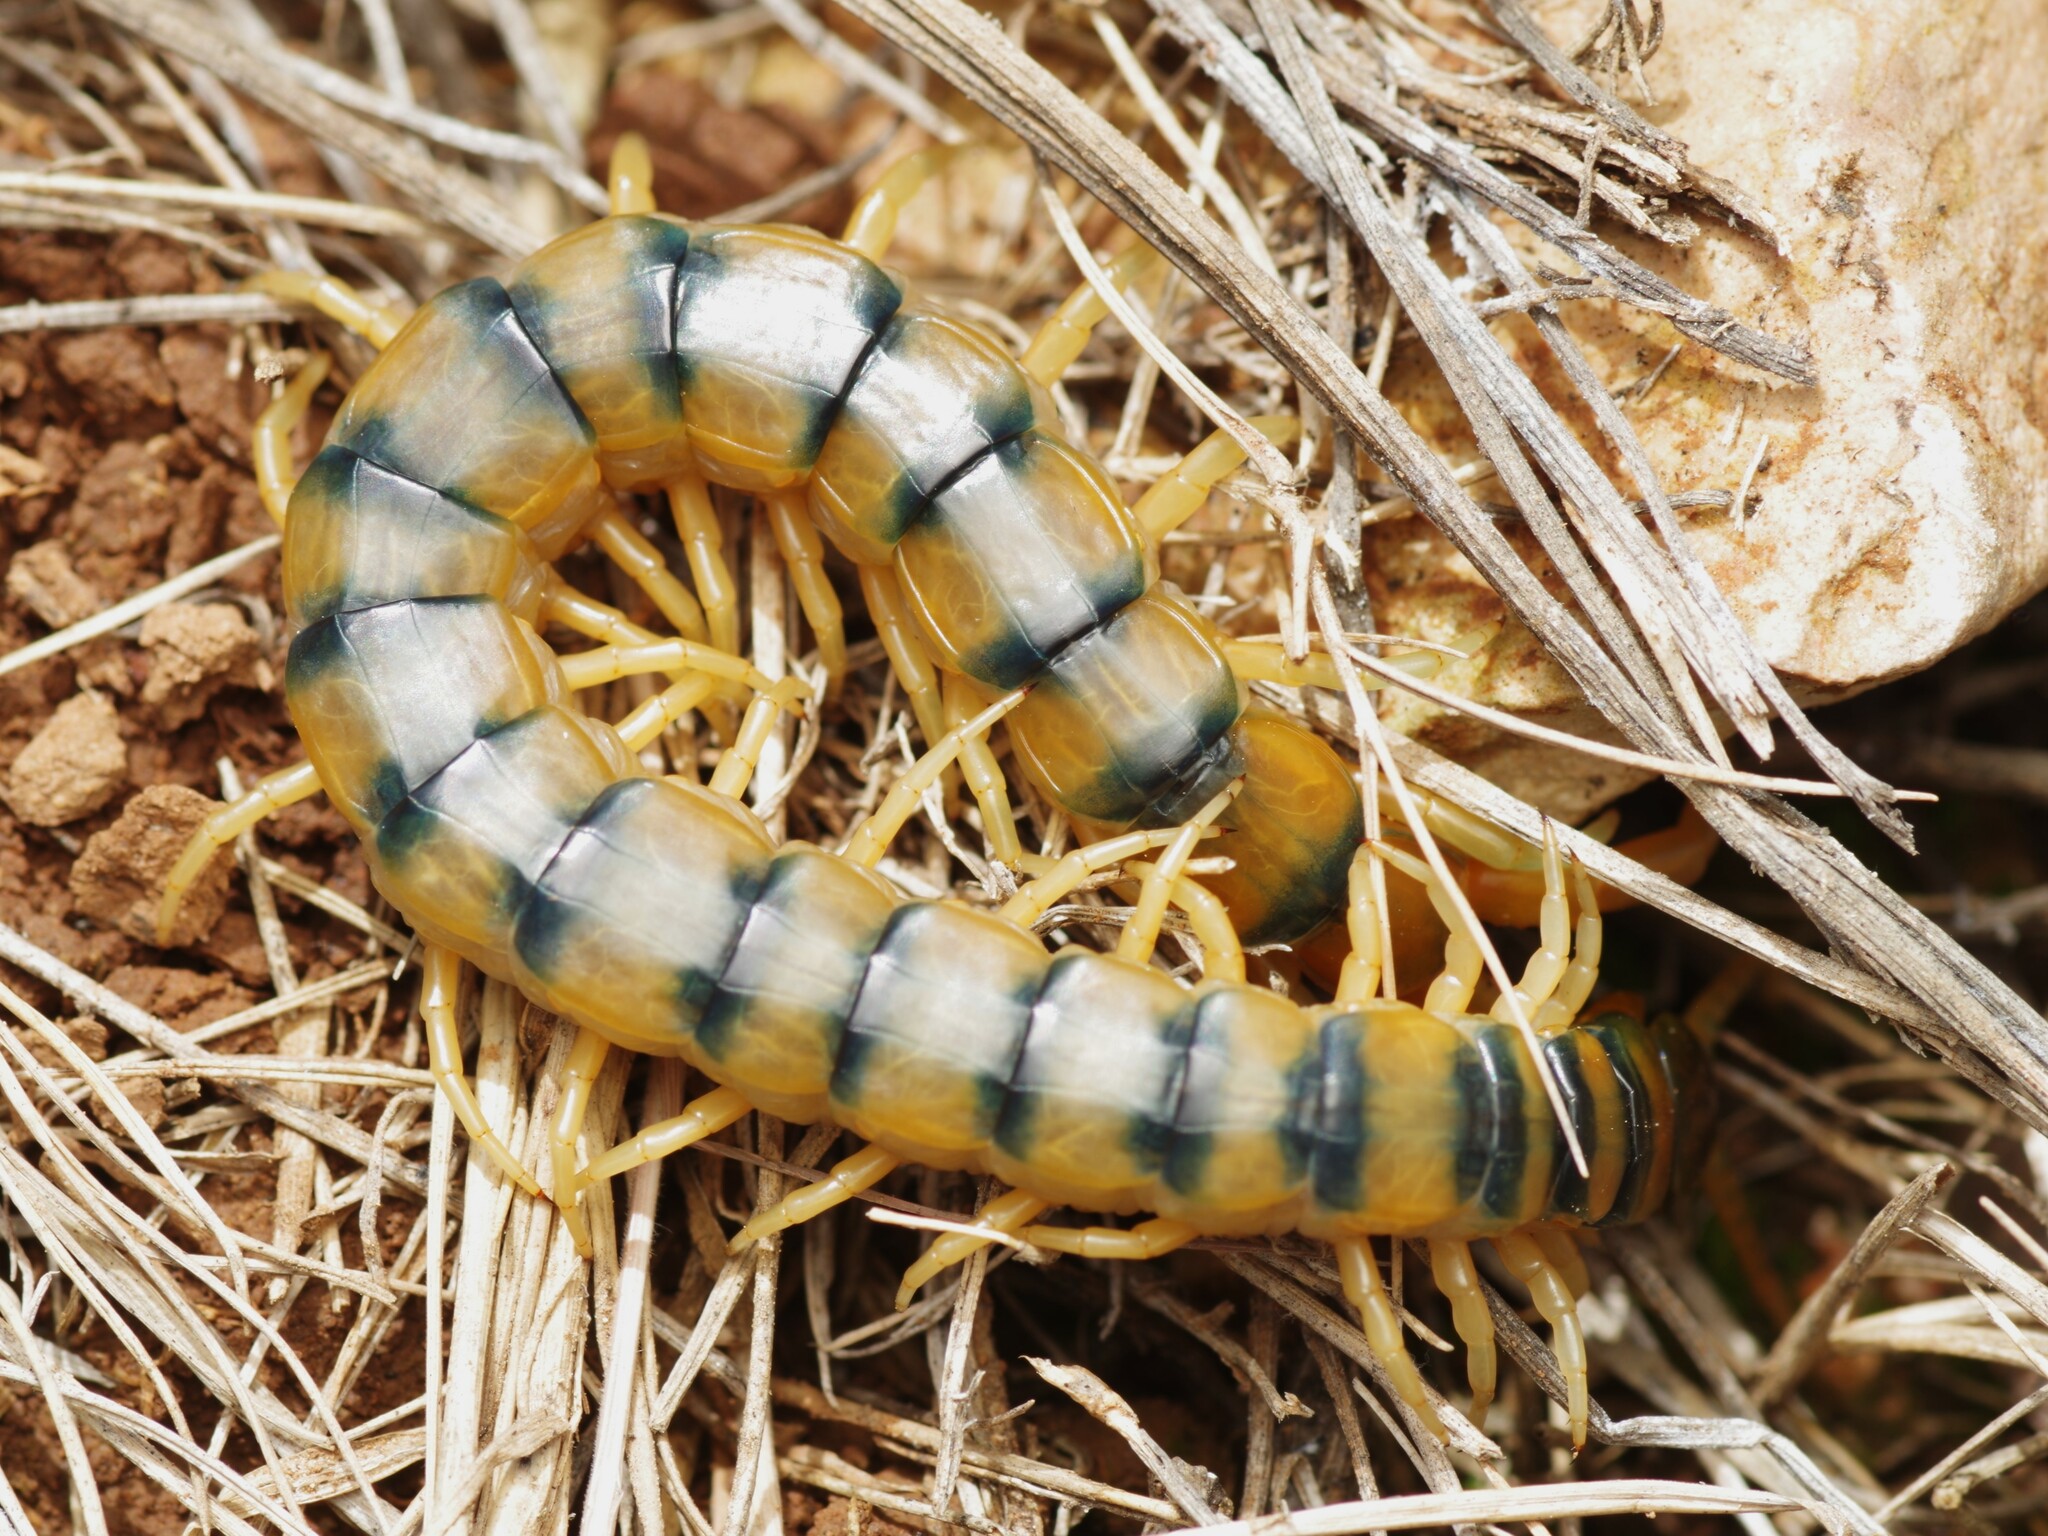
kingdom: Animalia
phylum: Arthropoda
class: Chilopoda
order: Scolopendromorpha
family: Scolopendridae
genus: Scolopendra
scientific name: Scolopendra cingulata
